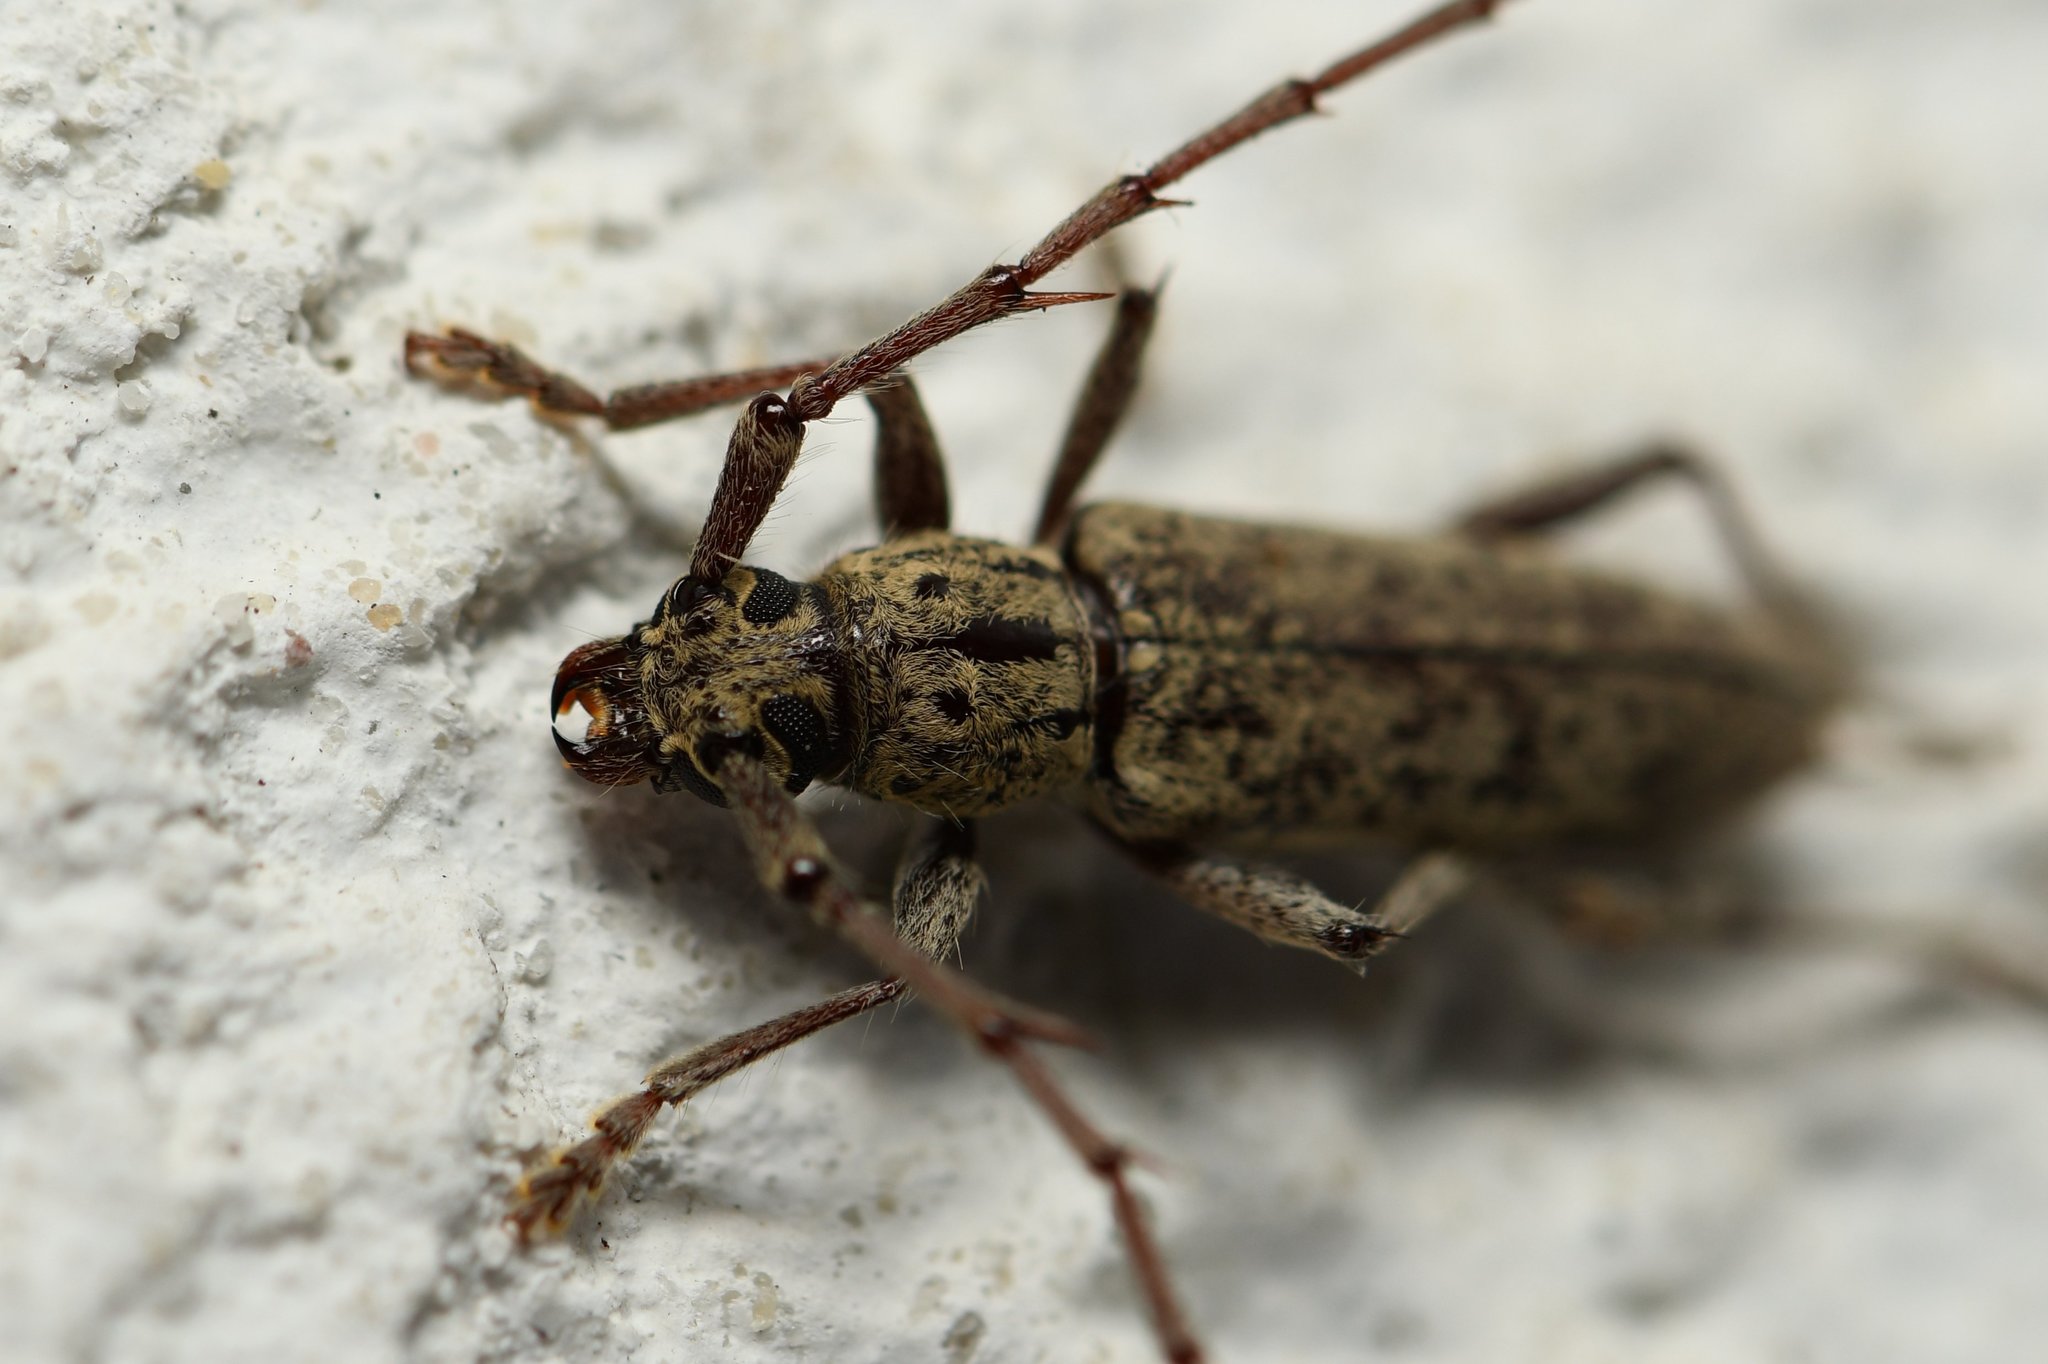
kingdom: Animalia
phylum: Arthropoda
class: Insecta
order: Coleoptera
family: Cerambycidae
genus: Elaphidion
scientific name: Elaphidion mucronatum
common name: Spined oak borer
